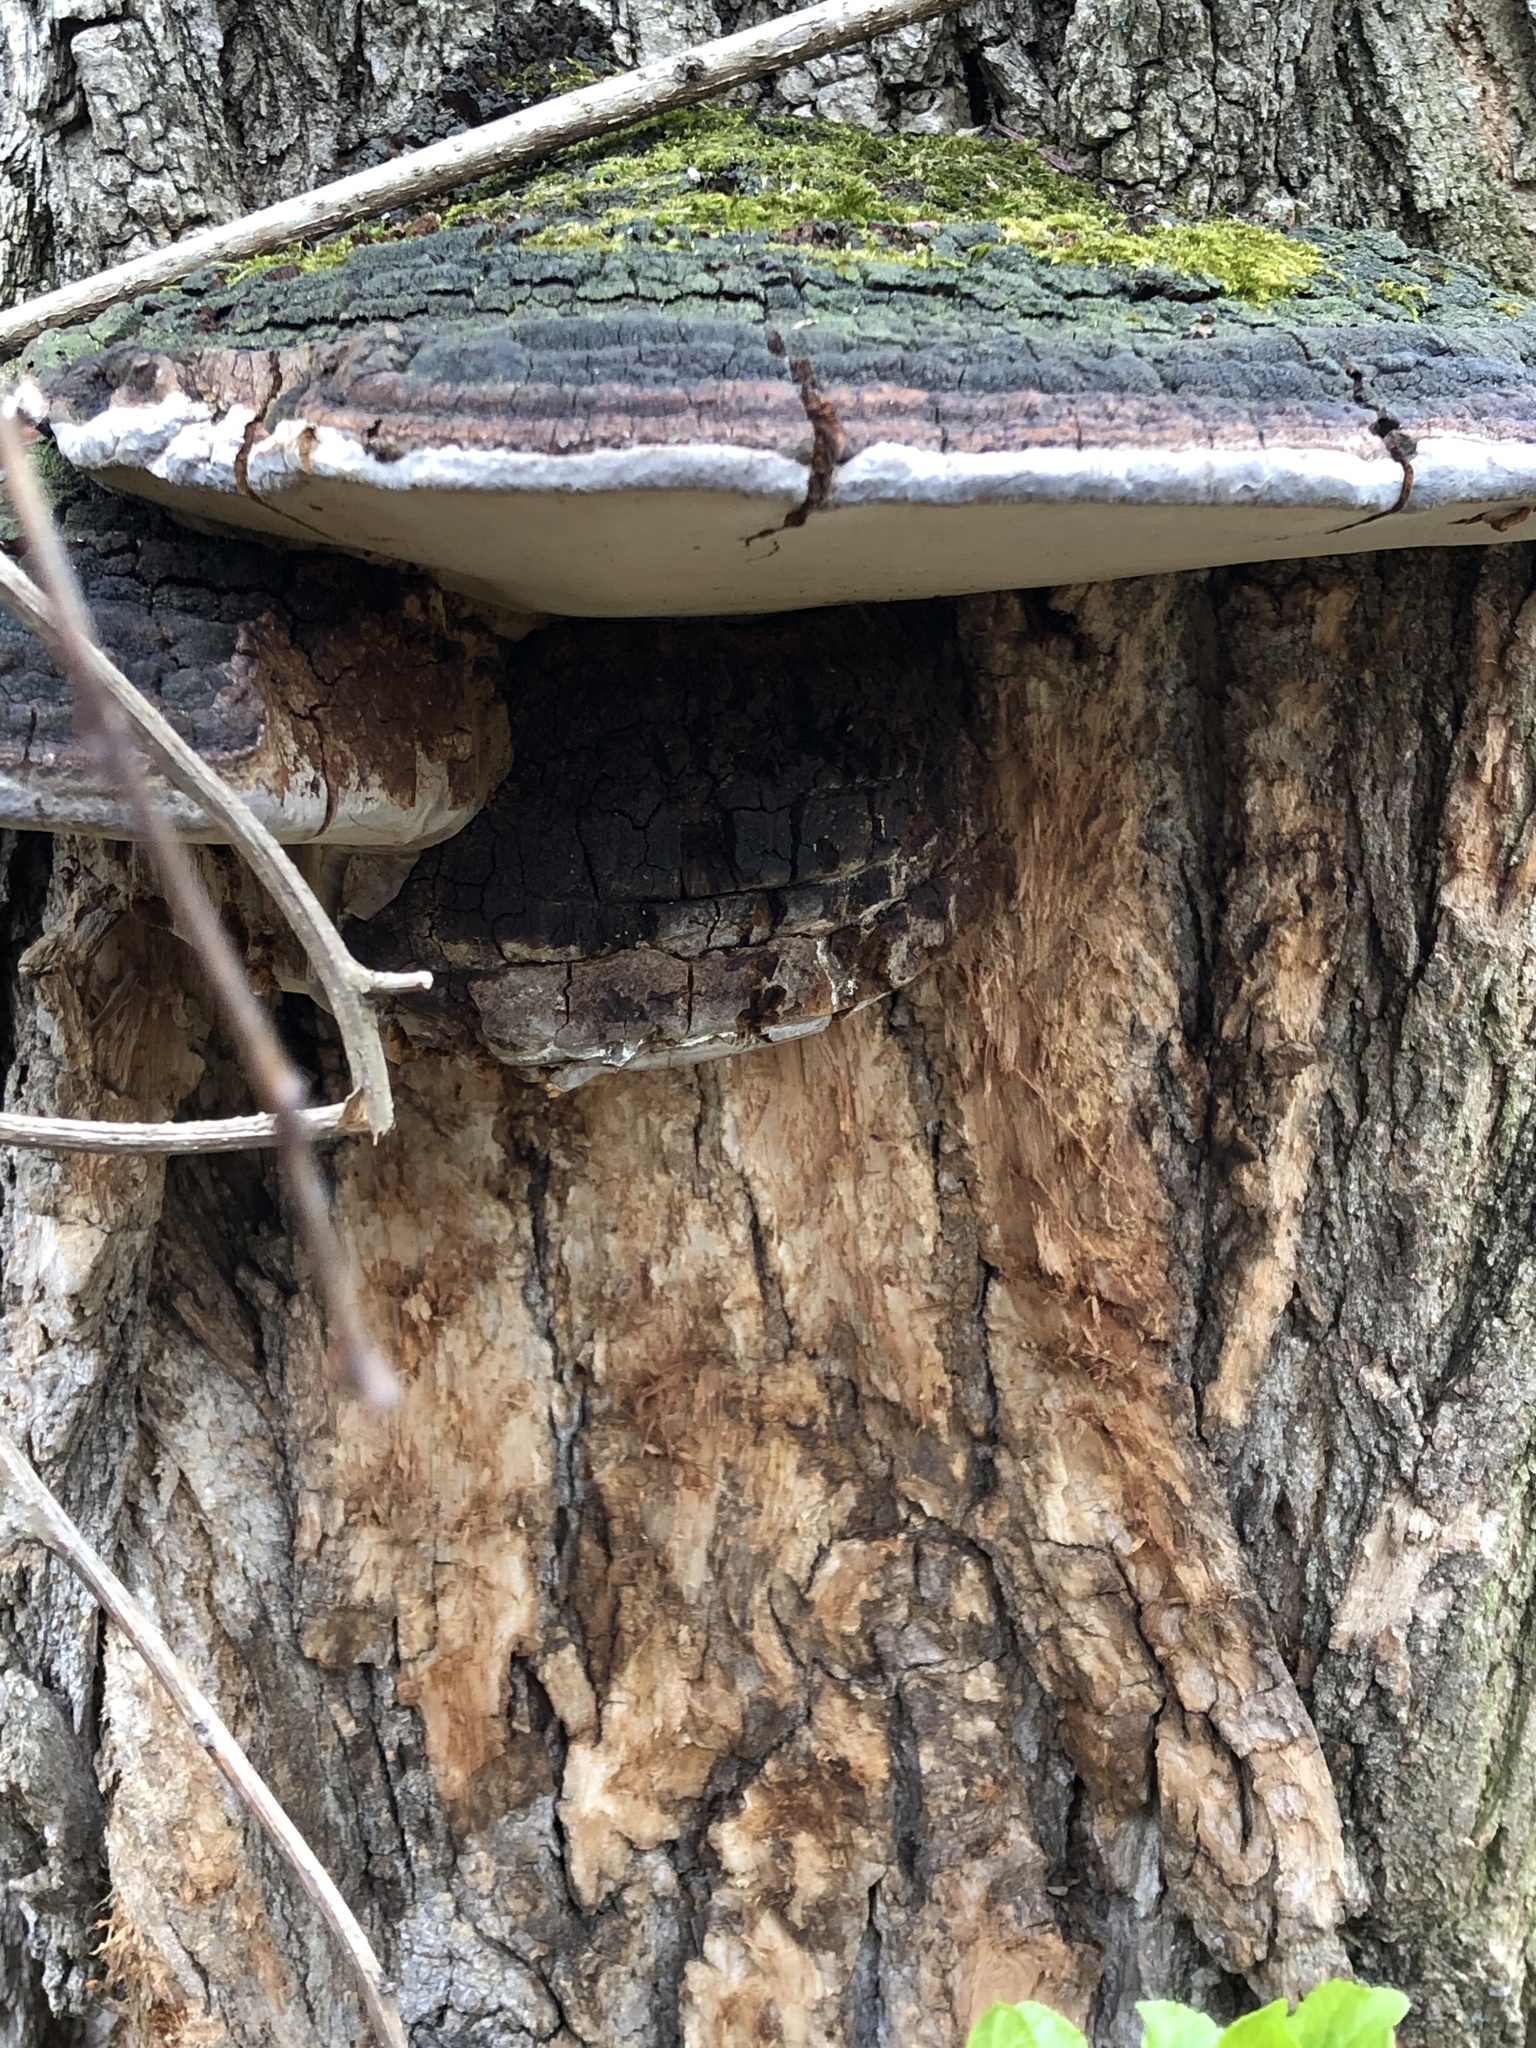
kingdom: Fungi
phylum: Basidiomycota
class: Agaricomycetes
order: Hymenochaetales
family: Hymenochaetaceae
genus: Phellinus
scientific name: Phellinus robiniae
